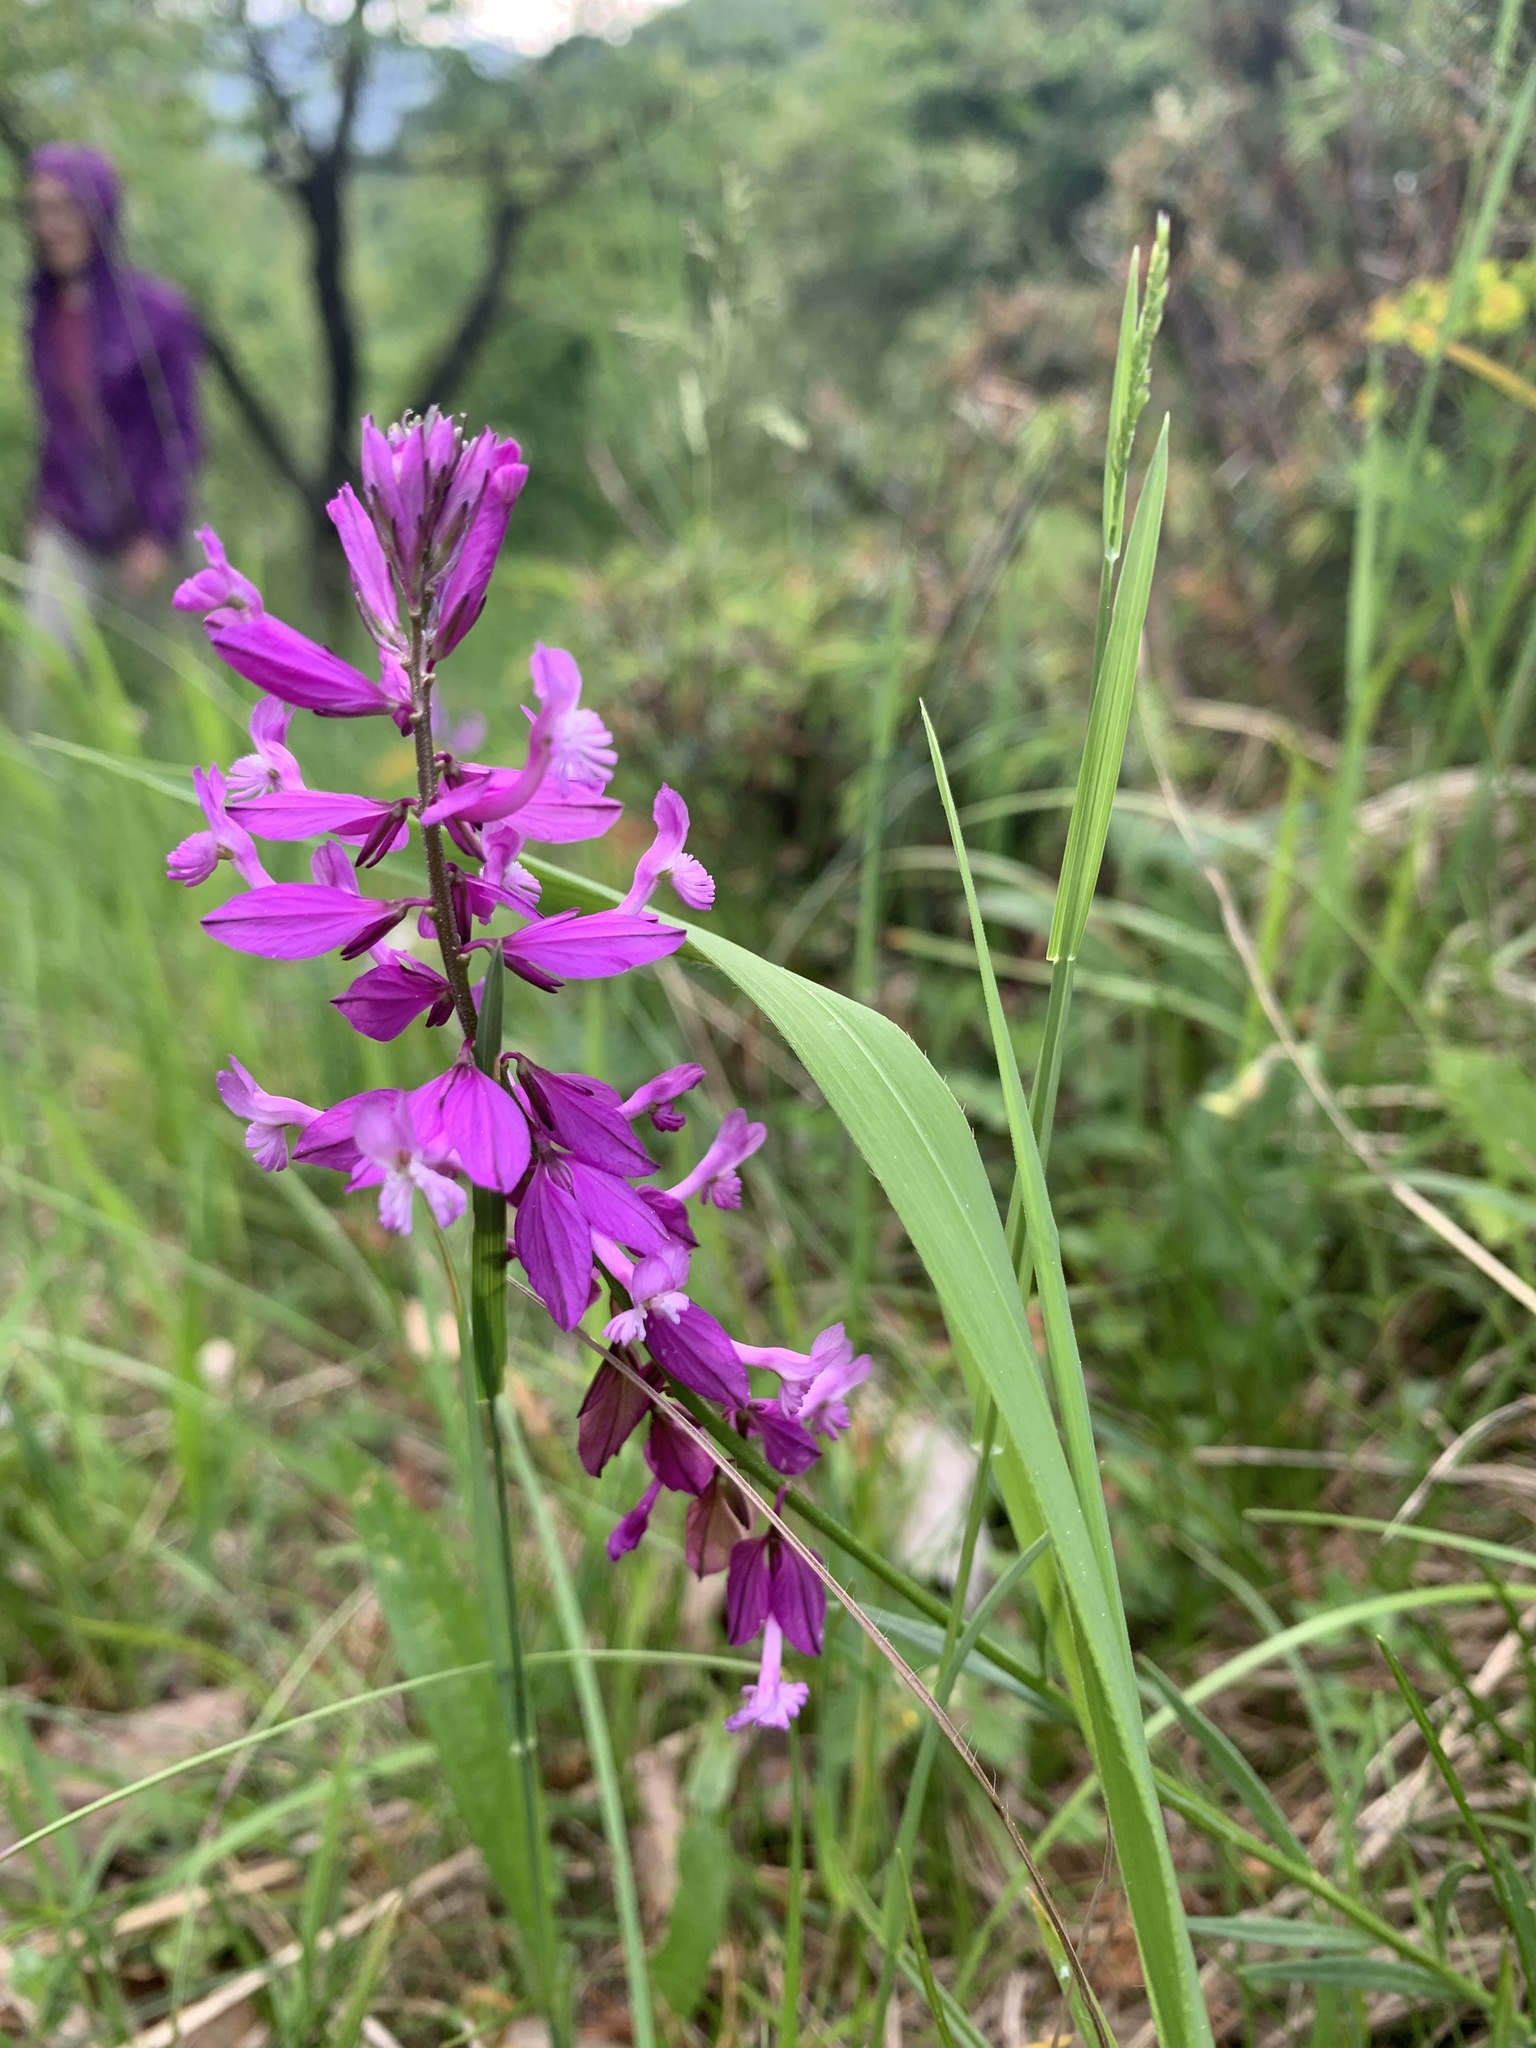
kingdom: Plantae
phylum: Tracheophyta
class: Magnoliopsida
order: Fabales
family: Polygalaceae
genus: Polygala
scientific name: Polygala major
